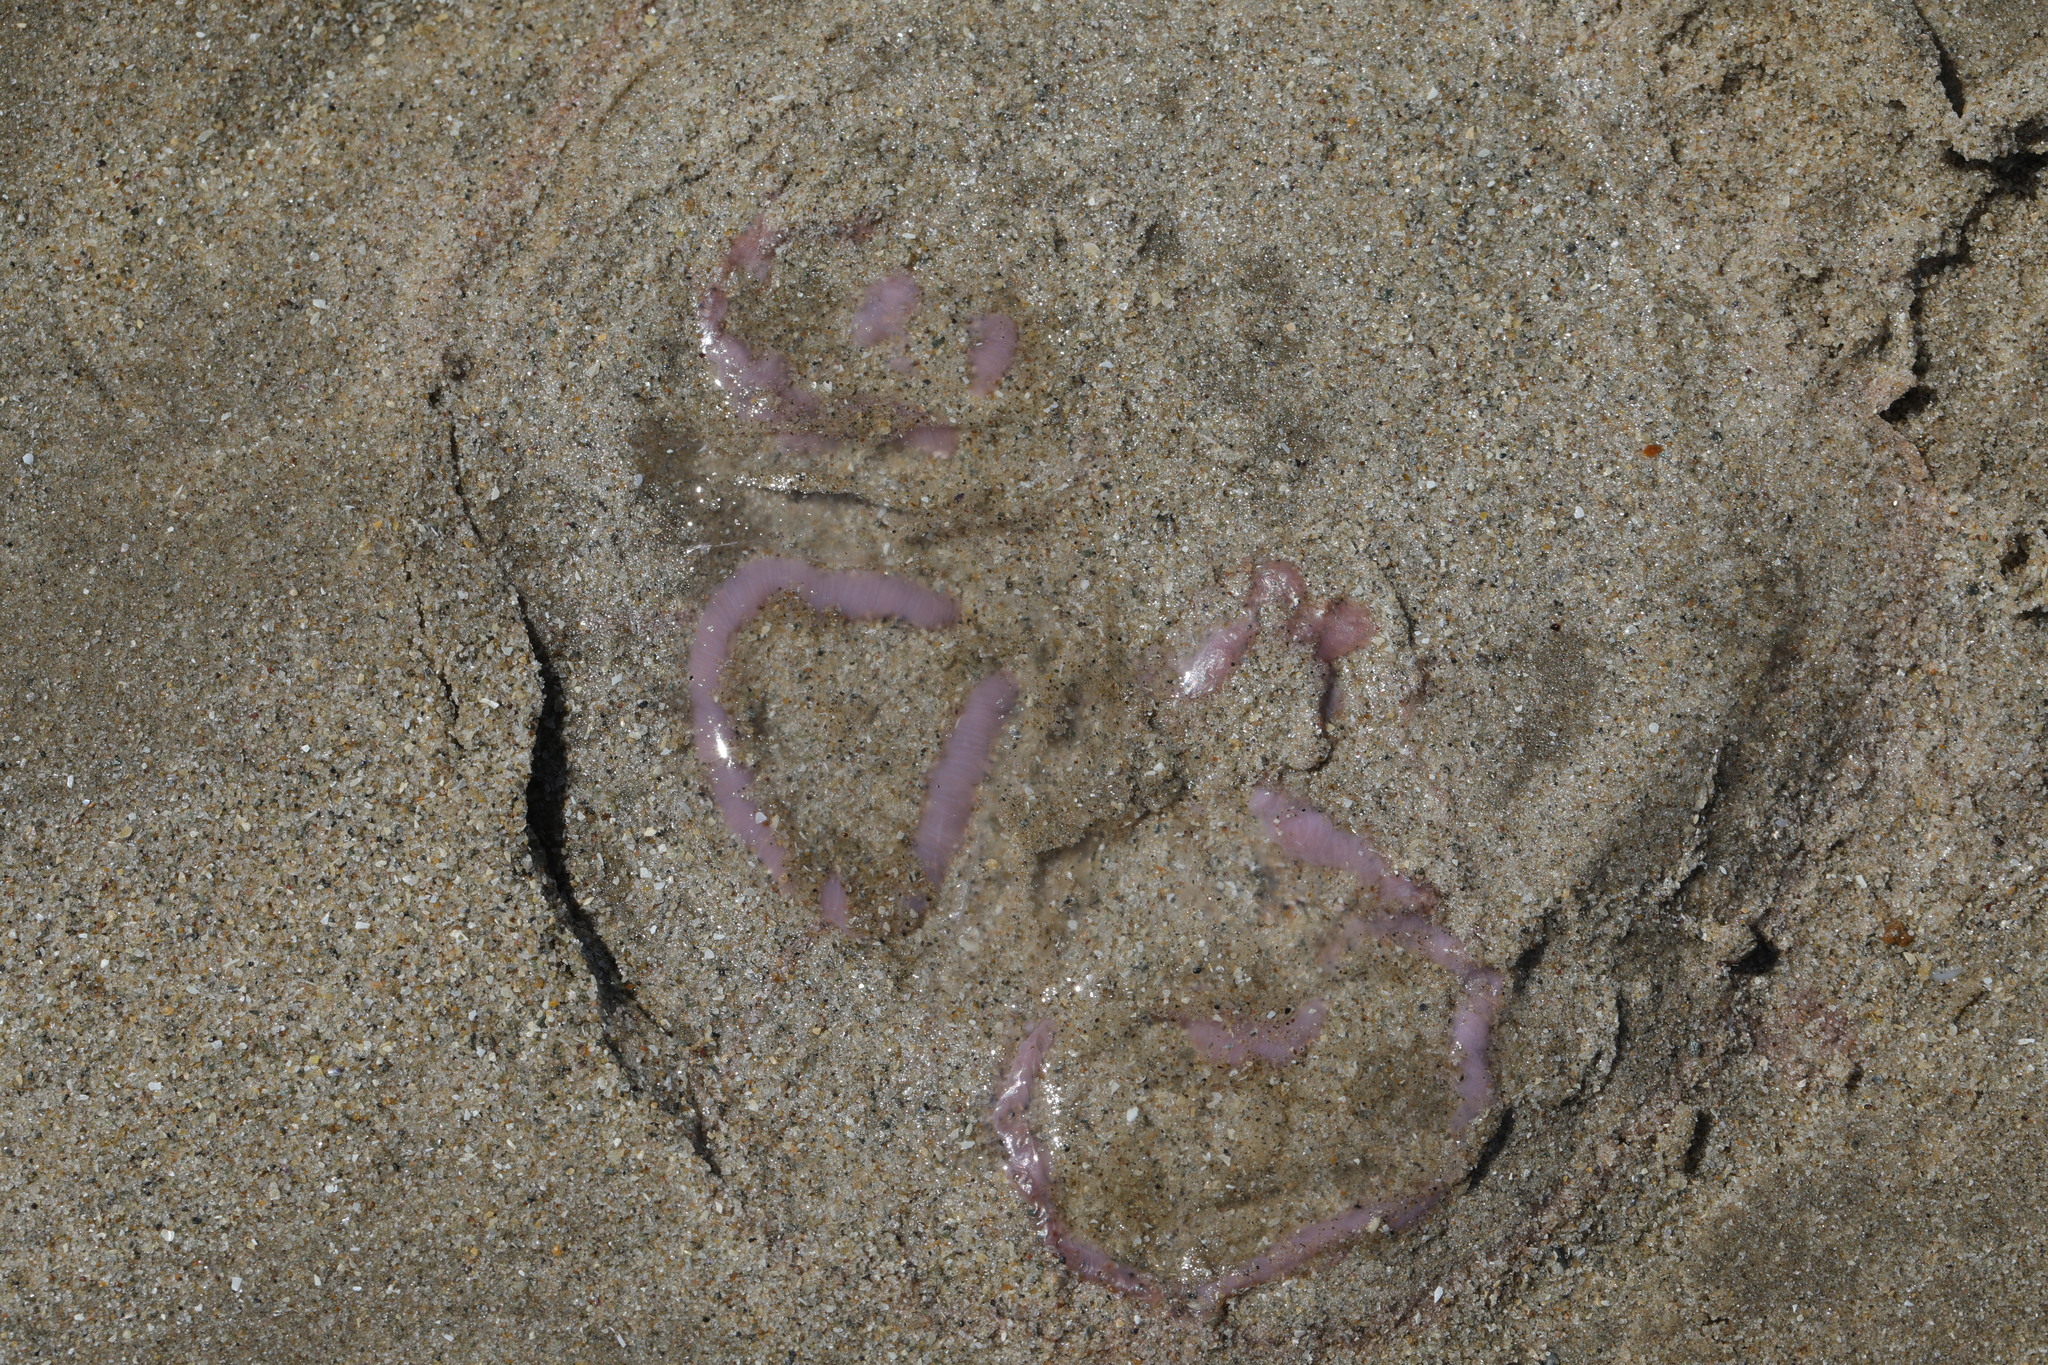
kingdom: Animalia
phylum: Cnidaria
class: Scyphozoa
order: Semaeostomeae
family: Ulmaridae
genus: Aurelia
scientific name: Aurelia aurita
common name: Moon jellyfish
